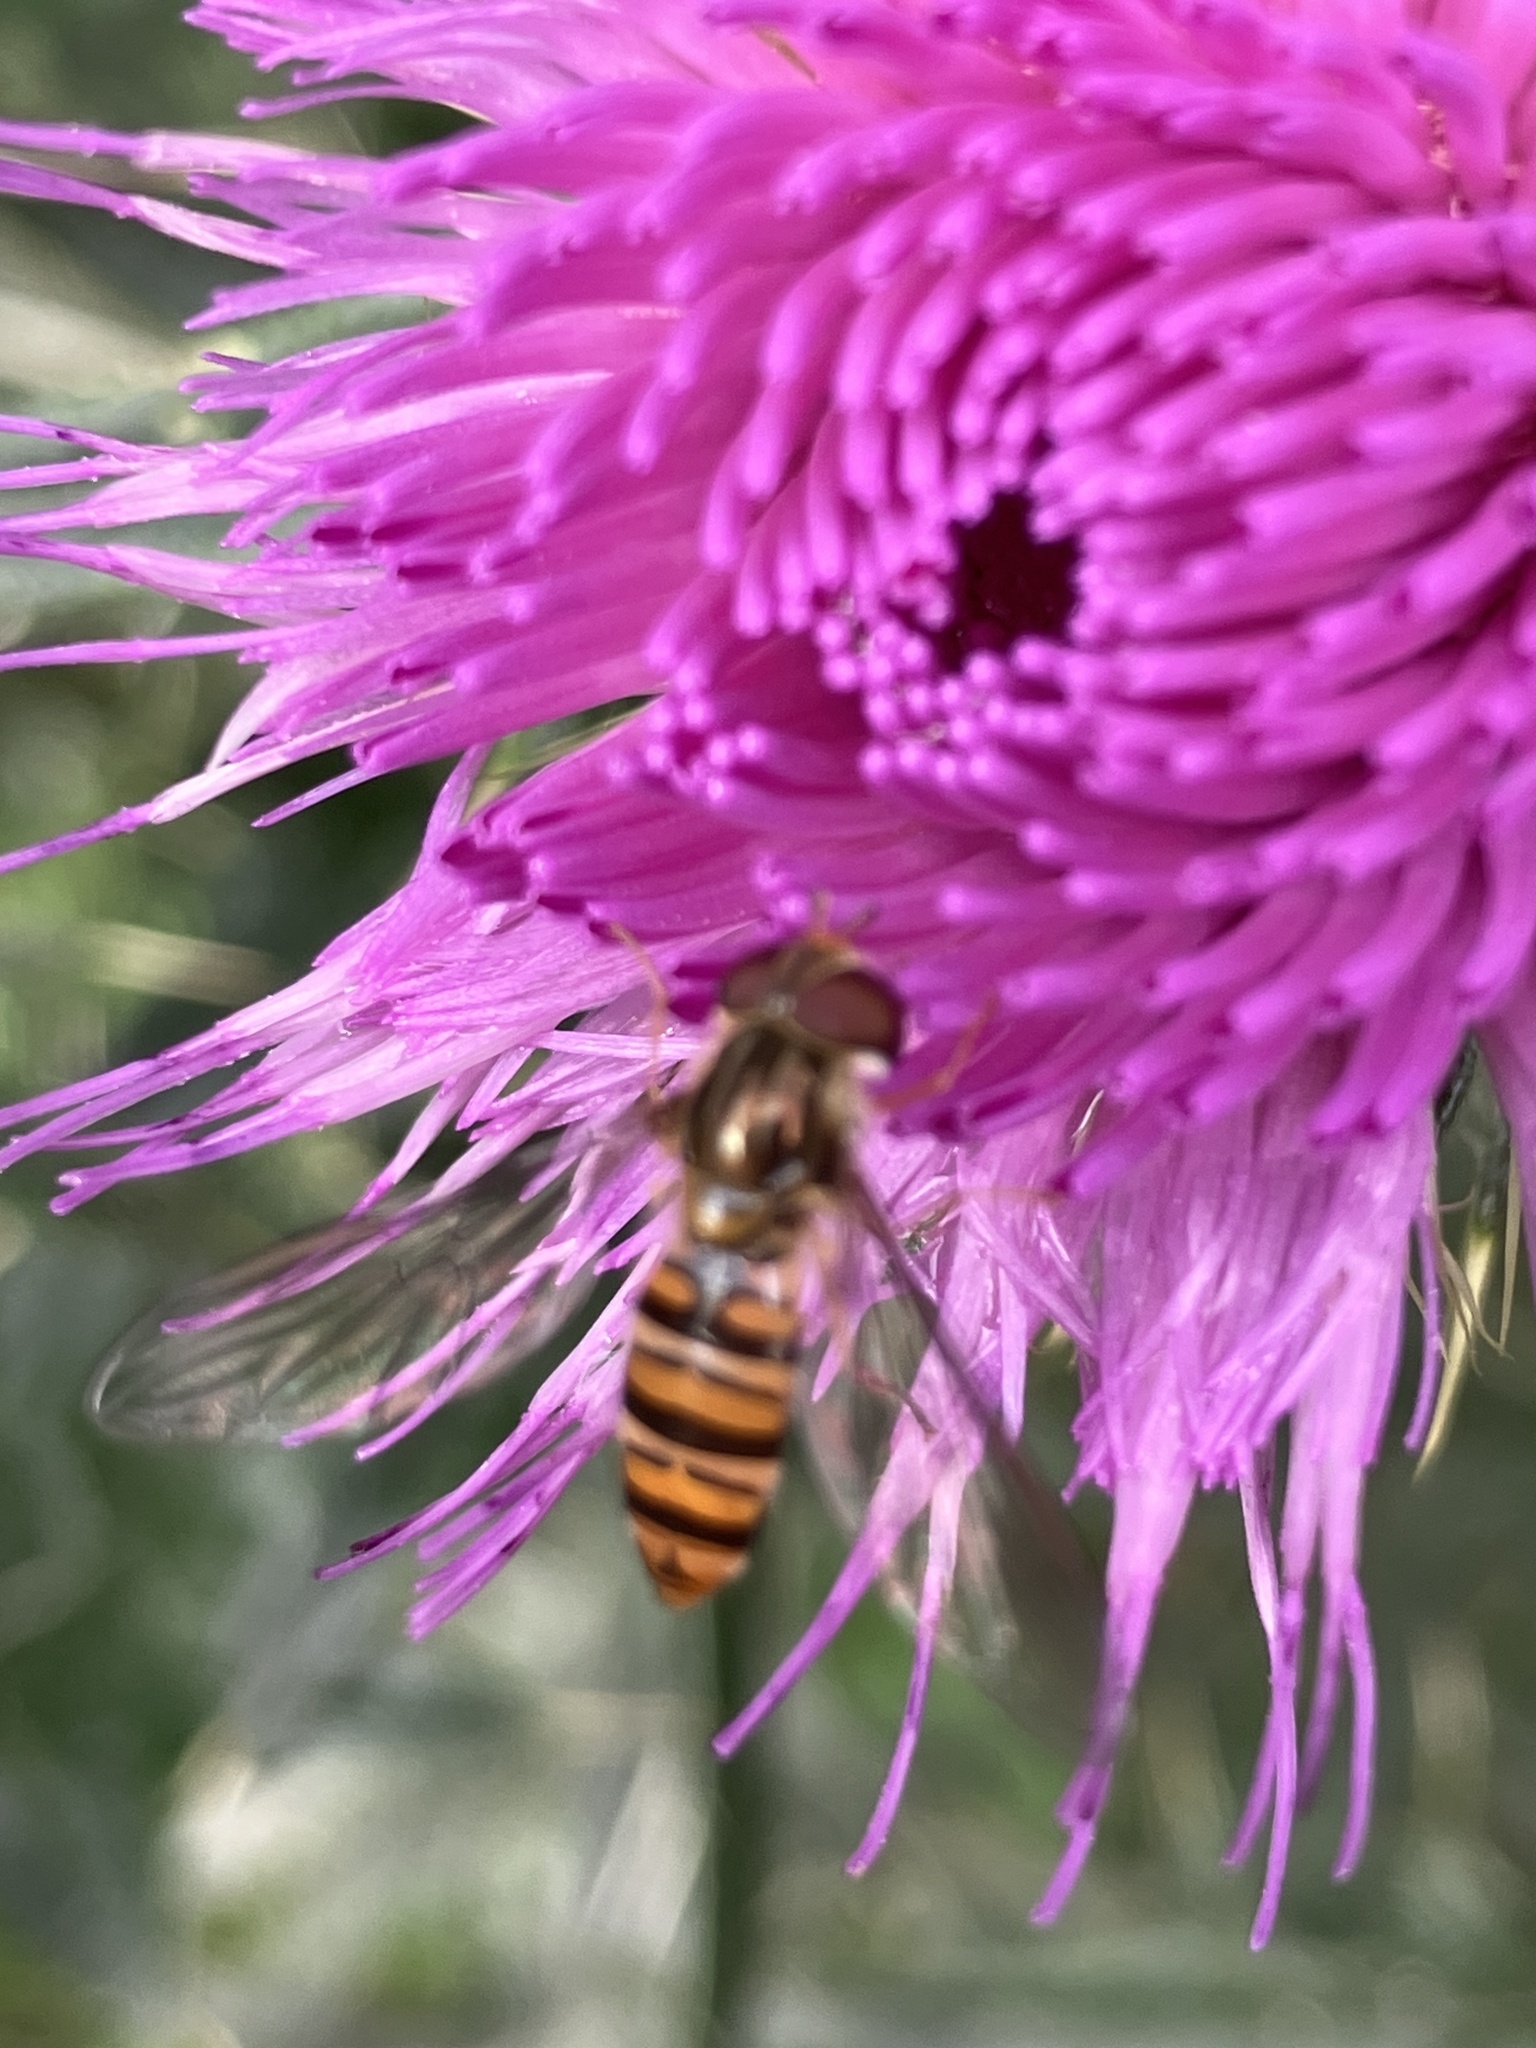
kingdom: Animalia
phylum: Arthropoda
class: Insecta
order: Diptera
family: Syrphidae
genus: Episyrphus
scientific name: Episyrphus balteatus
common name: Marmalade hoverfly
